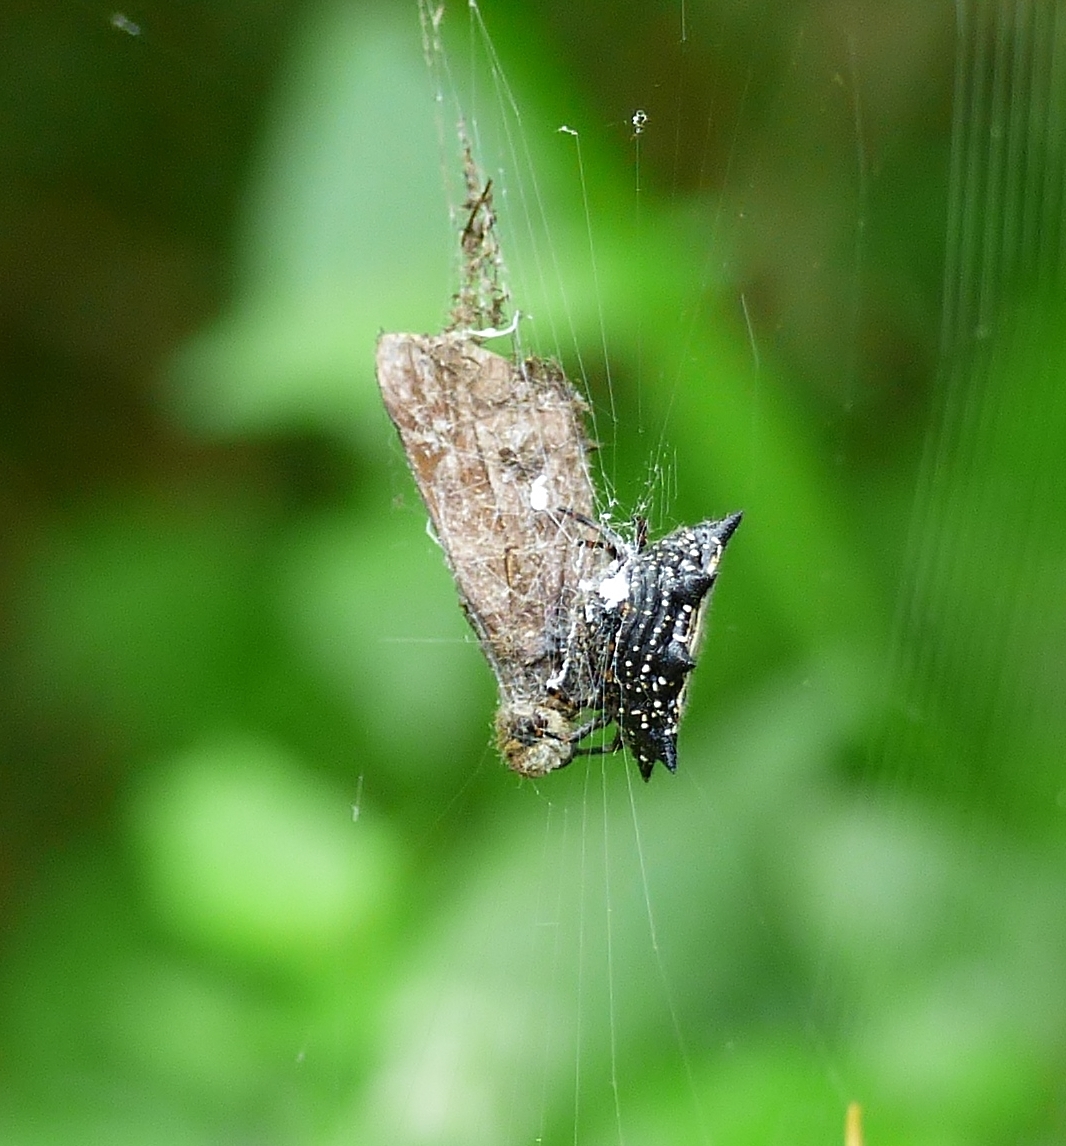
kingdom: Animalia
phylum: Arthropoda
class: Arachnida
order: Araneae
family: Araneidae
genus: Gasteracantha
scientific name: Gasteracantha cancriformis
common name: Orb weavers
